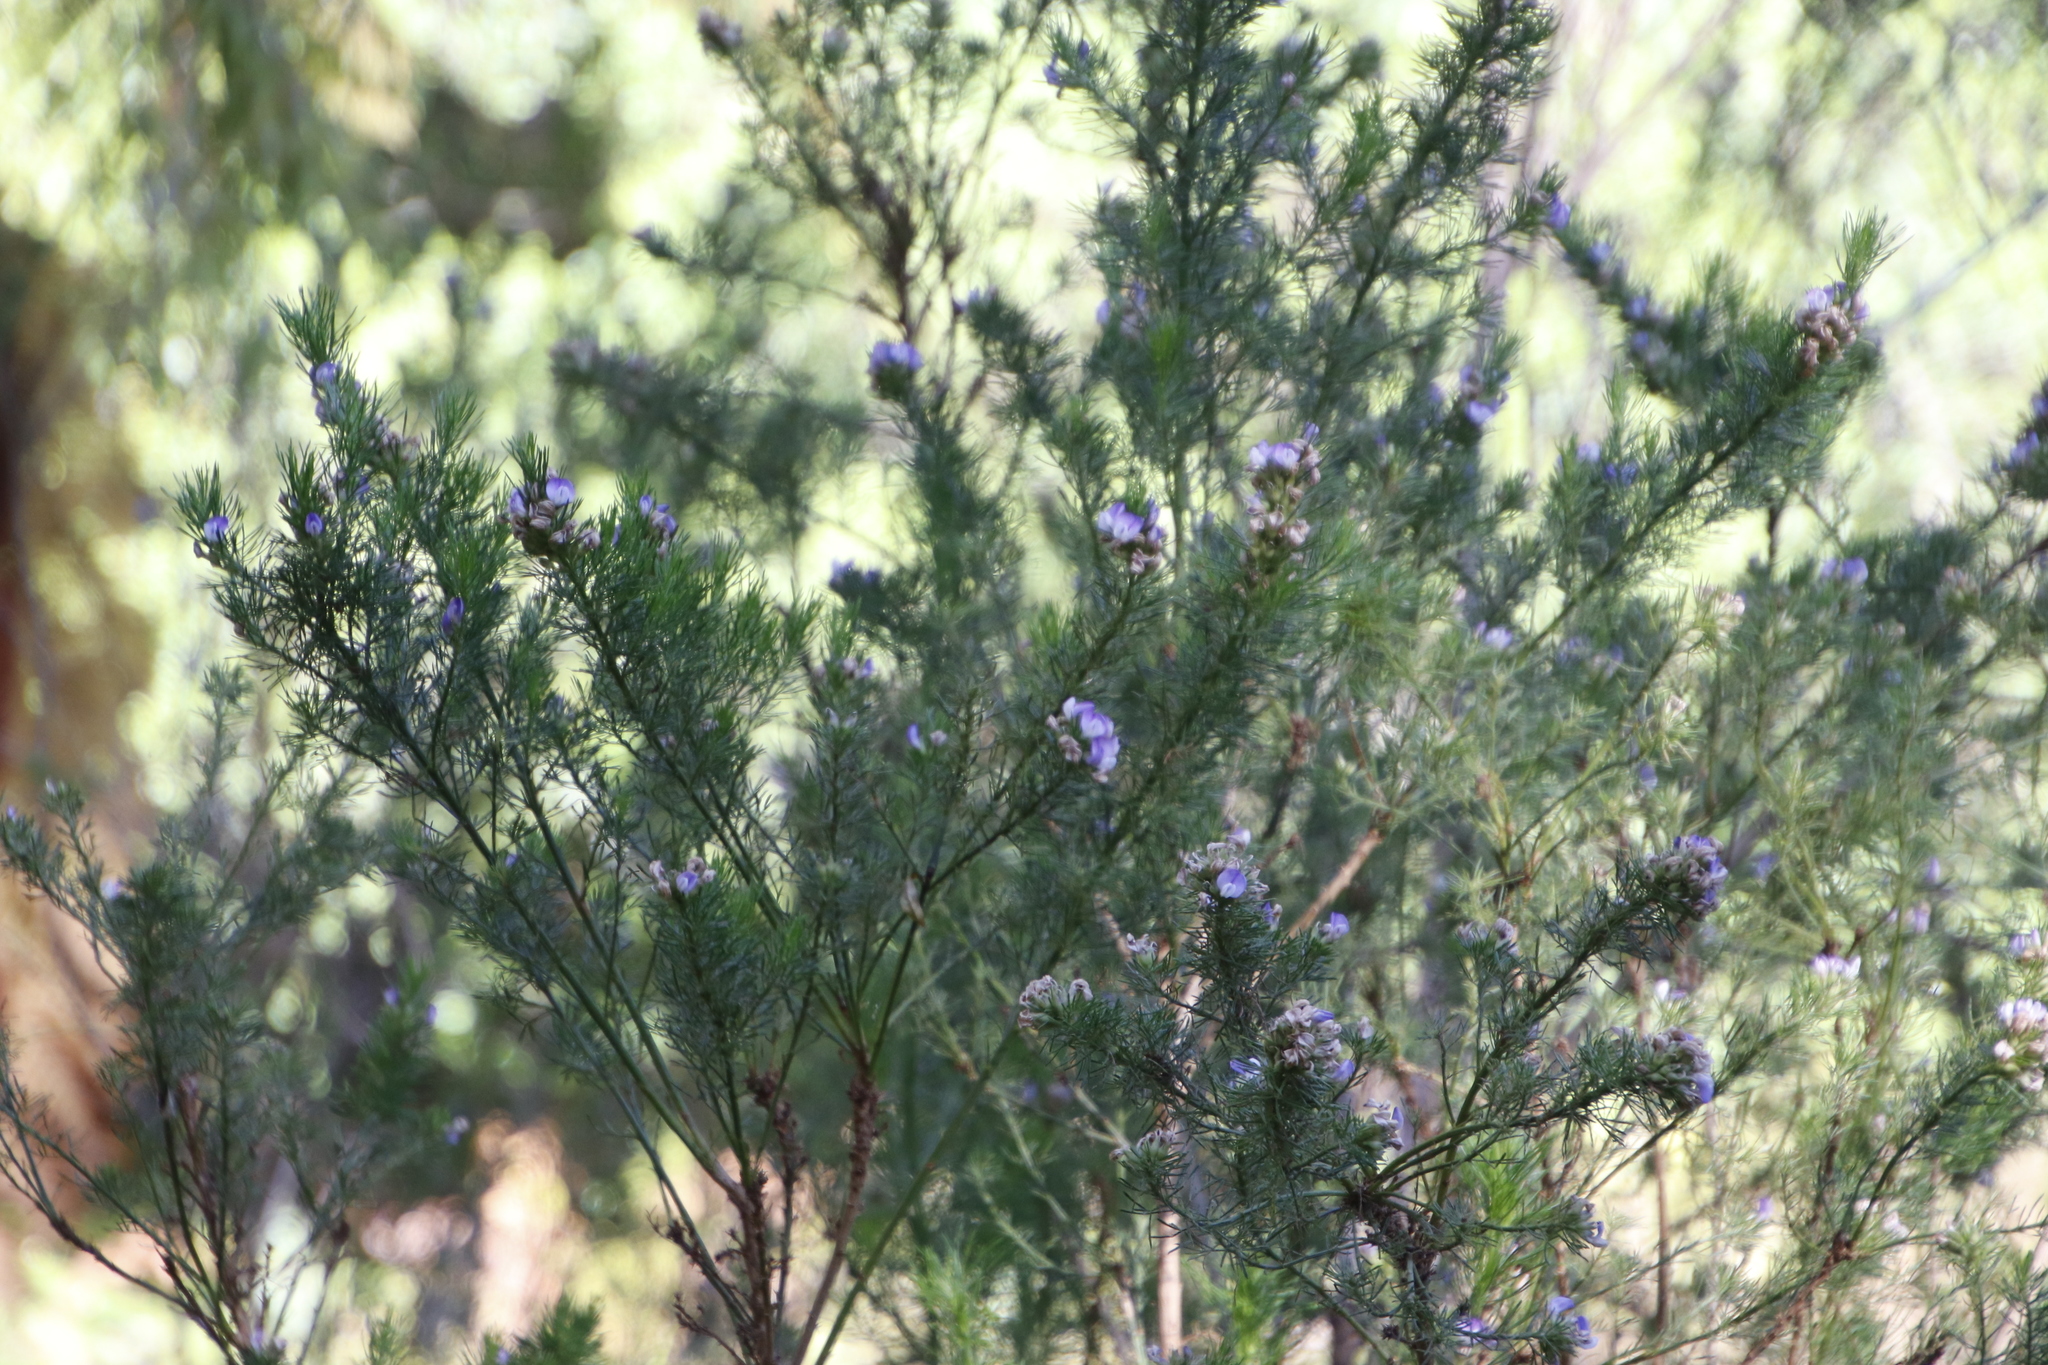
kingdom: Plantae
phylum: Tracheophyta
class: Magnoliopsida
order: Fabales
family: Fabaceae
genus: Psoralea
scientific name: Psoralea pinnata
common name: African scurfpea
